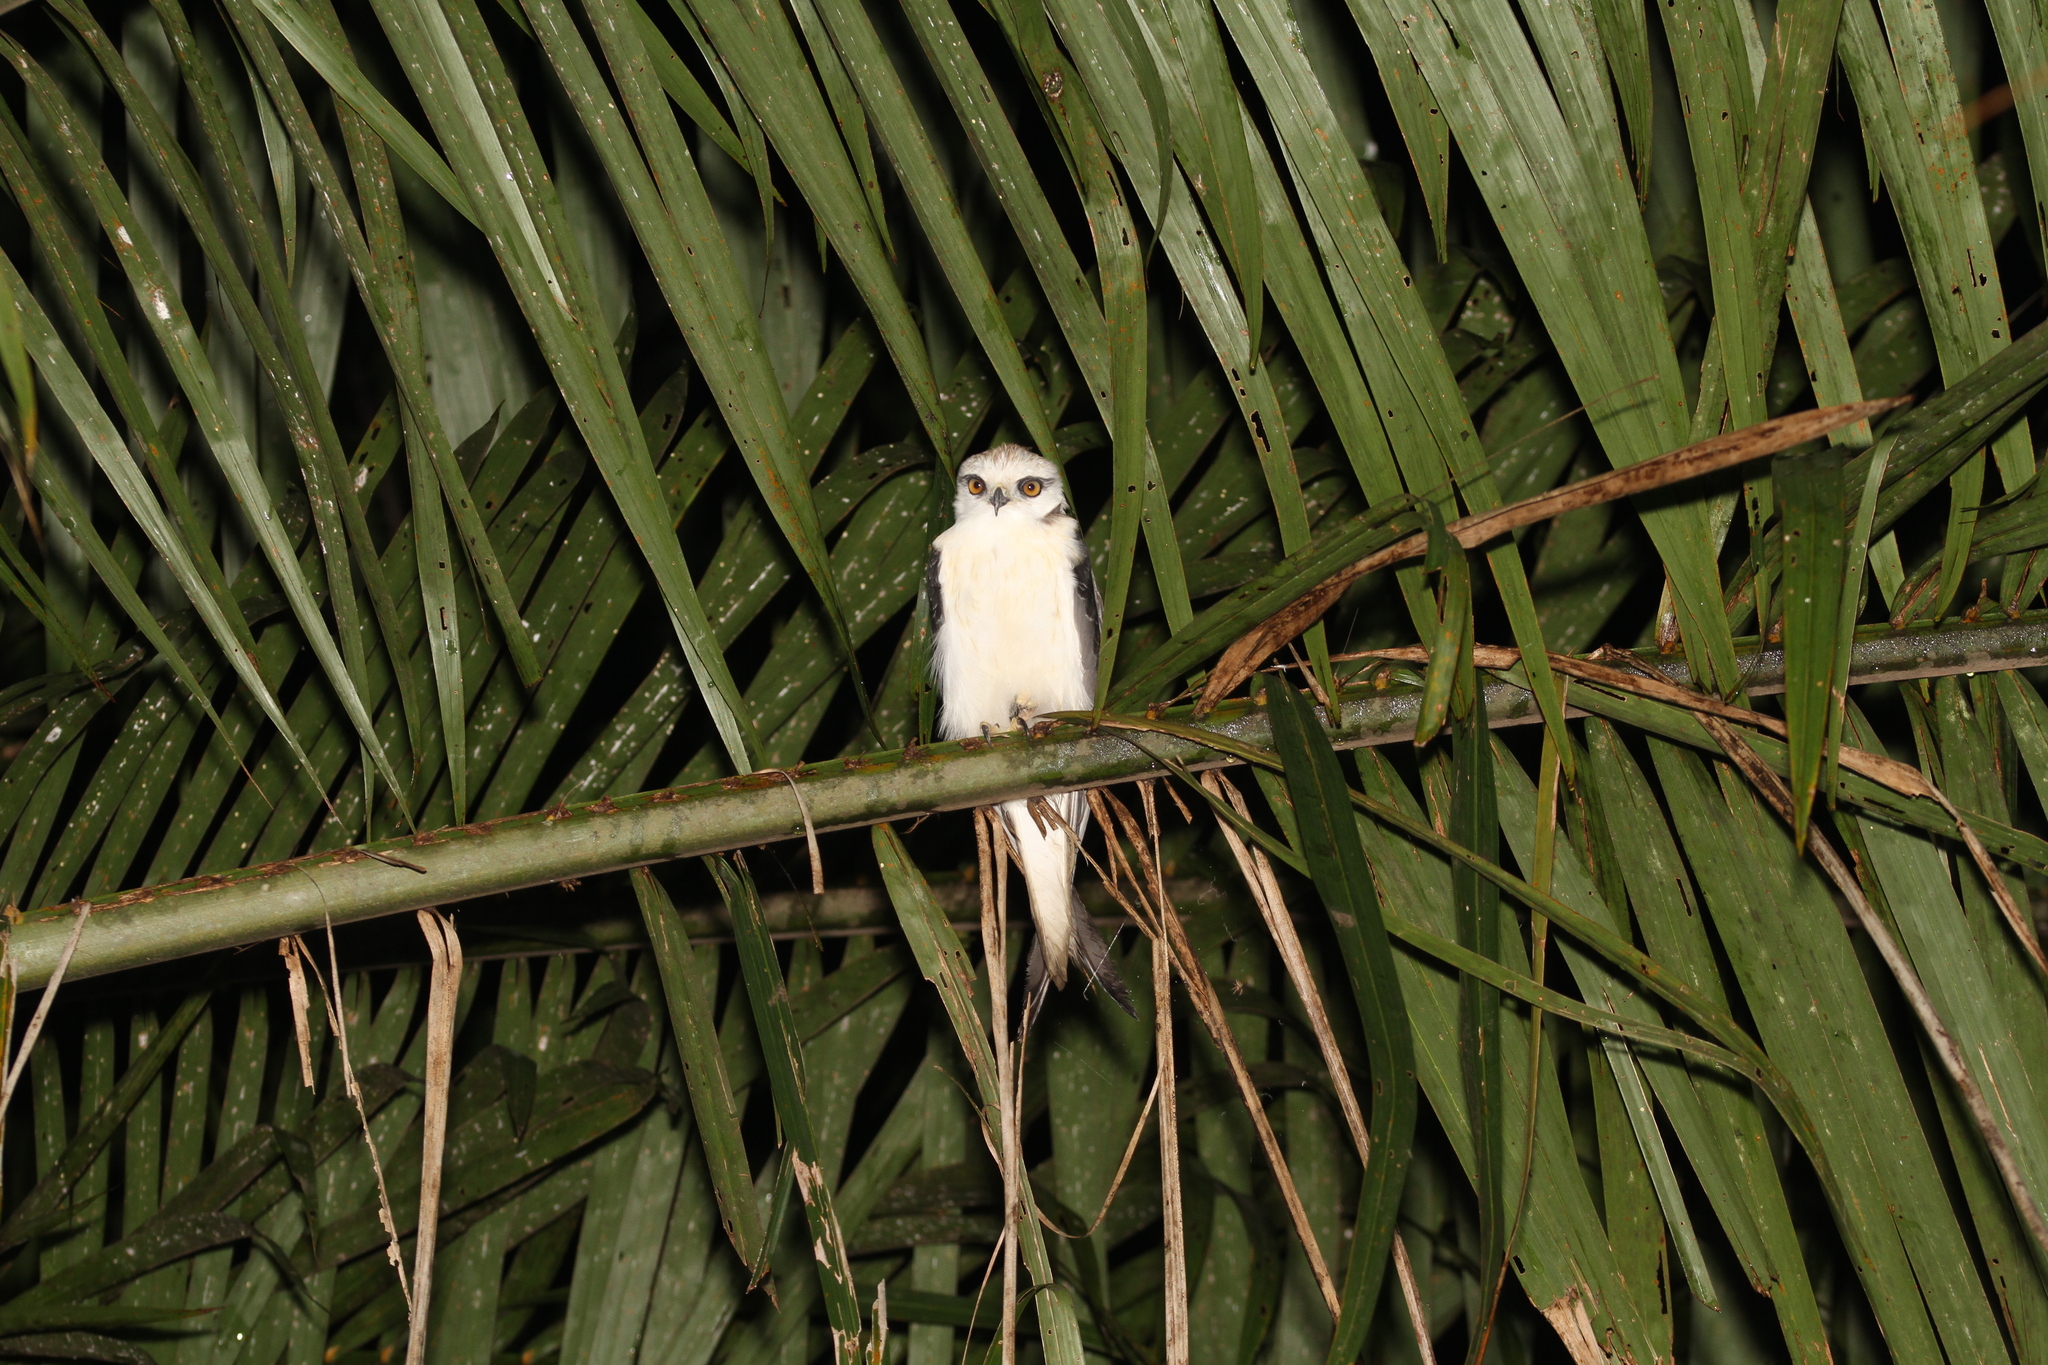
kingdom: Animalia
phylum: Chordata
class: Aves
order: Accipitriformes
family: Accipitridae
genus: Elanus
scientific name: Elanus caeruleus
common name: Black-winged kite
